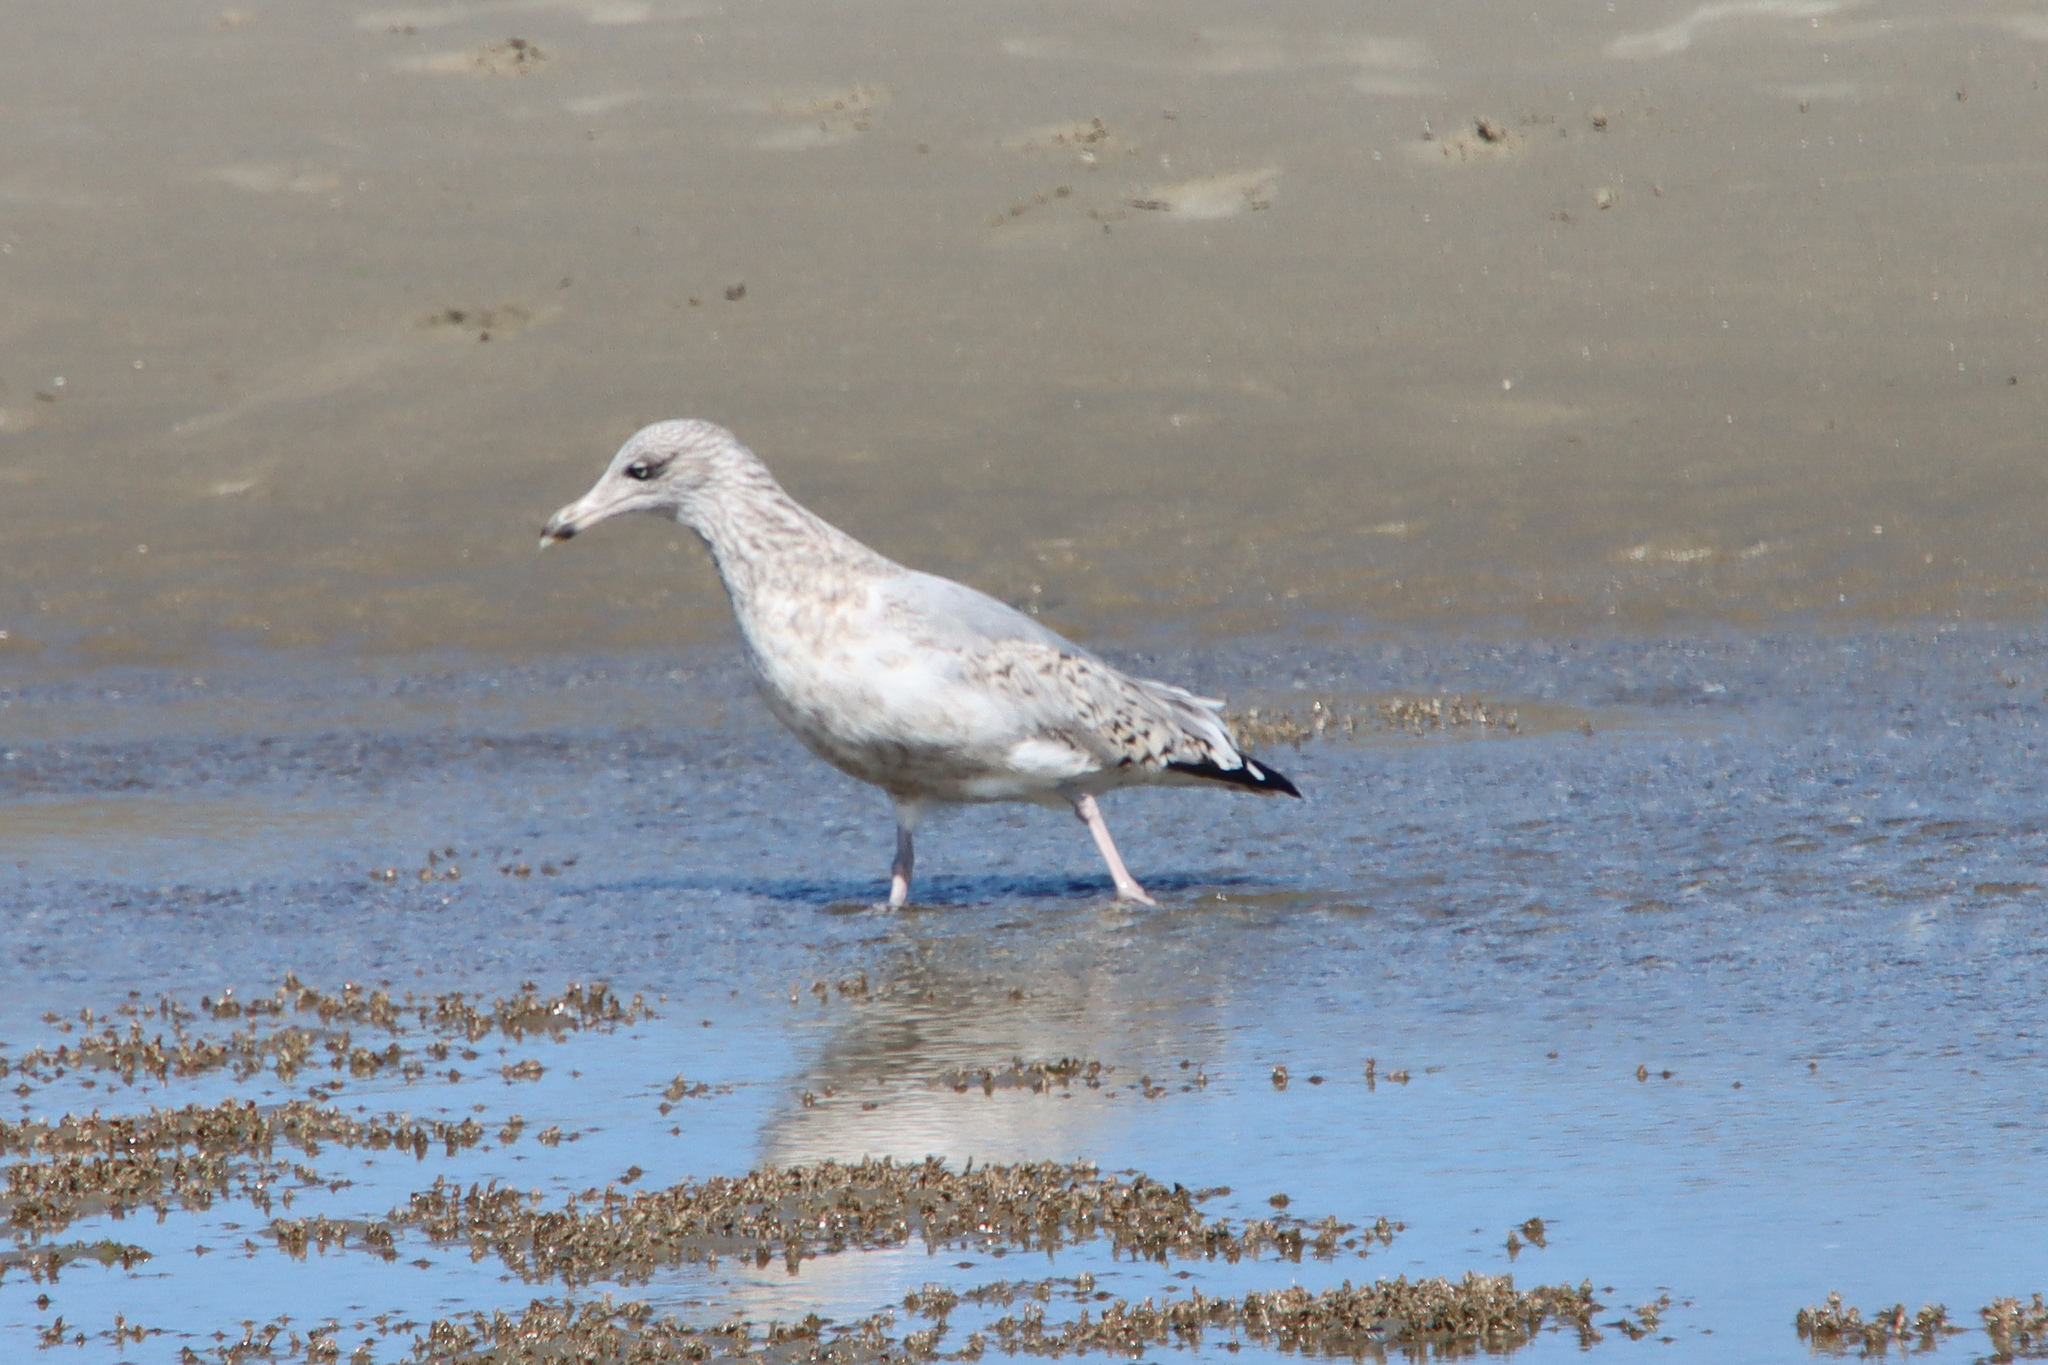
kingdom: Animalia
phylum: Chordata
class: Aves
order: Charadriiformes
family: Laridae
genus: Larus
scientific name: Larus argentatus
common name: Herring gull
